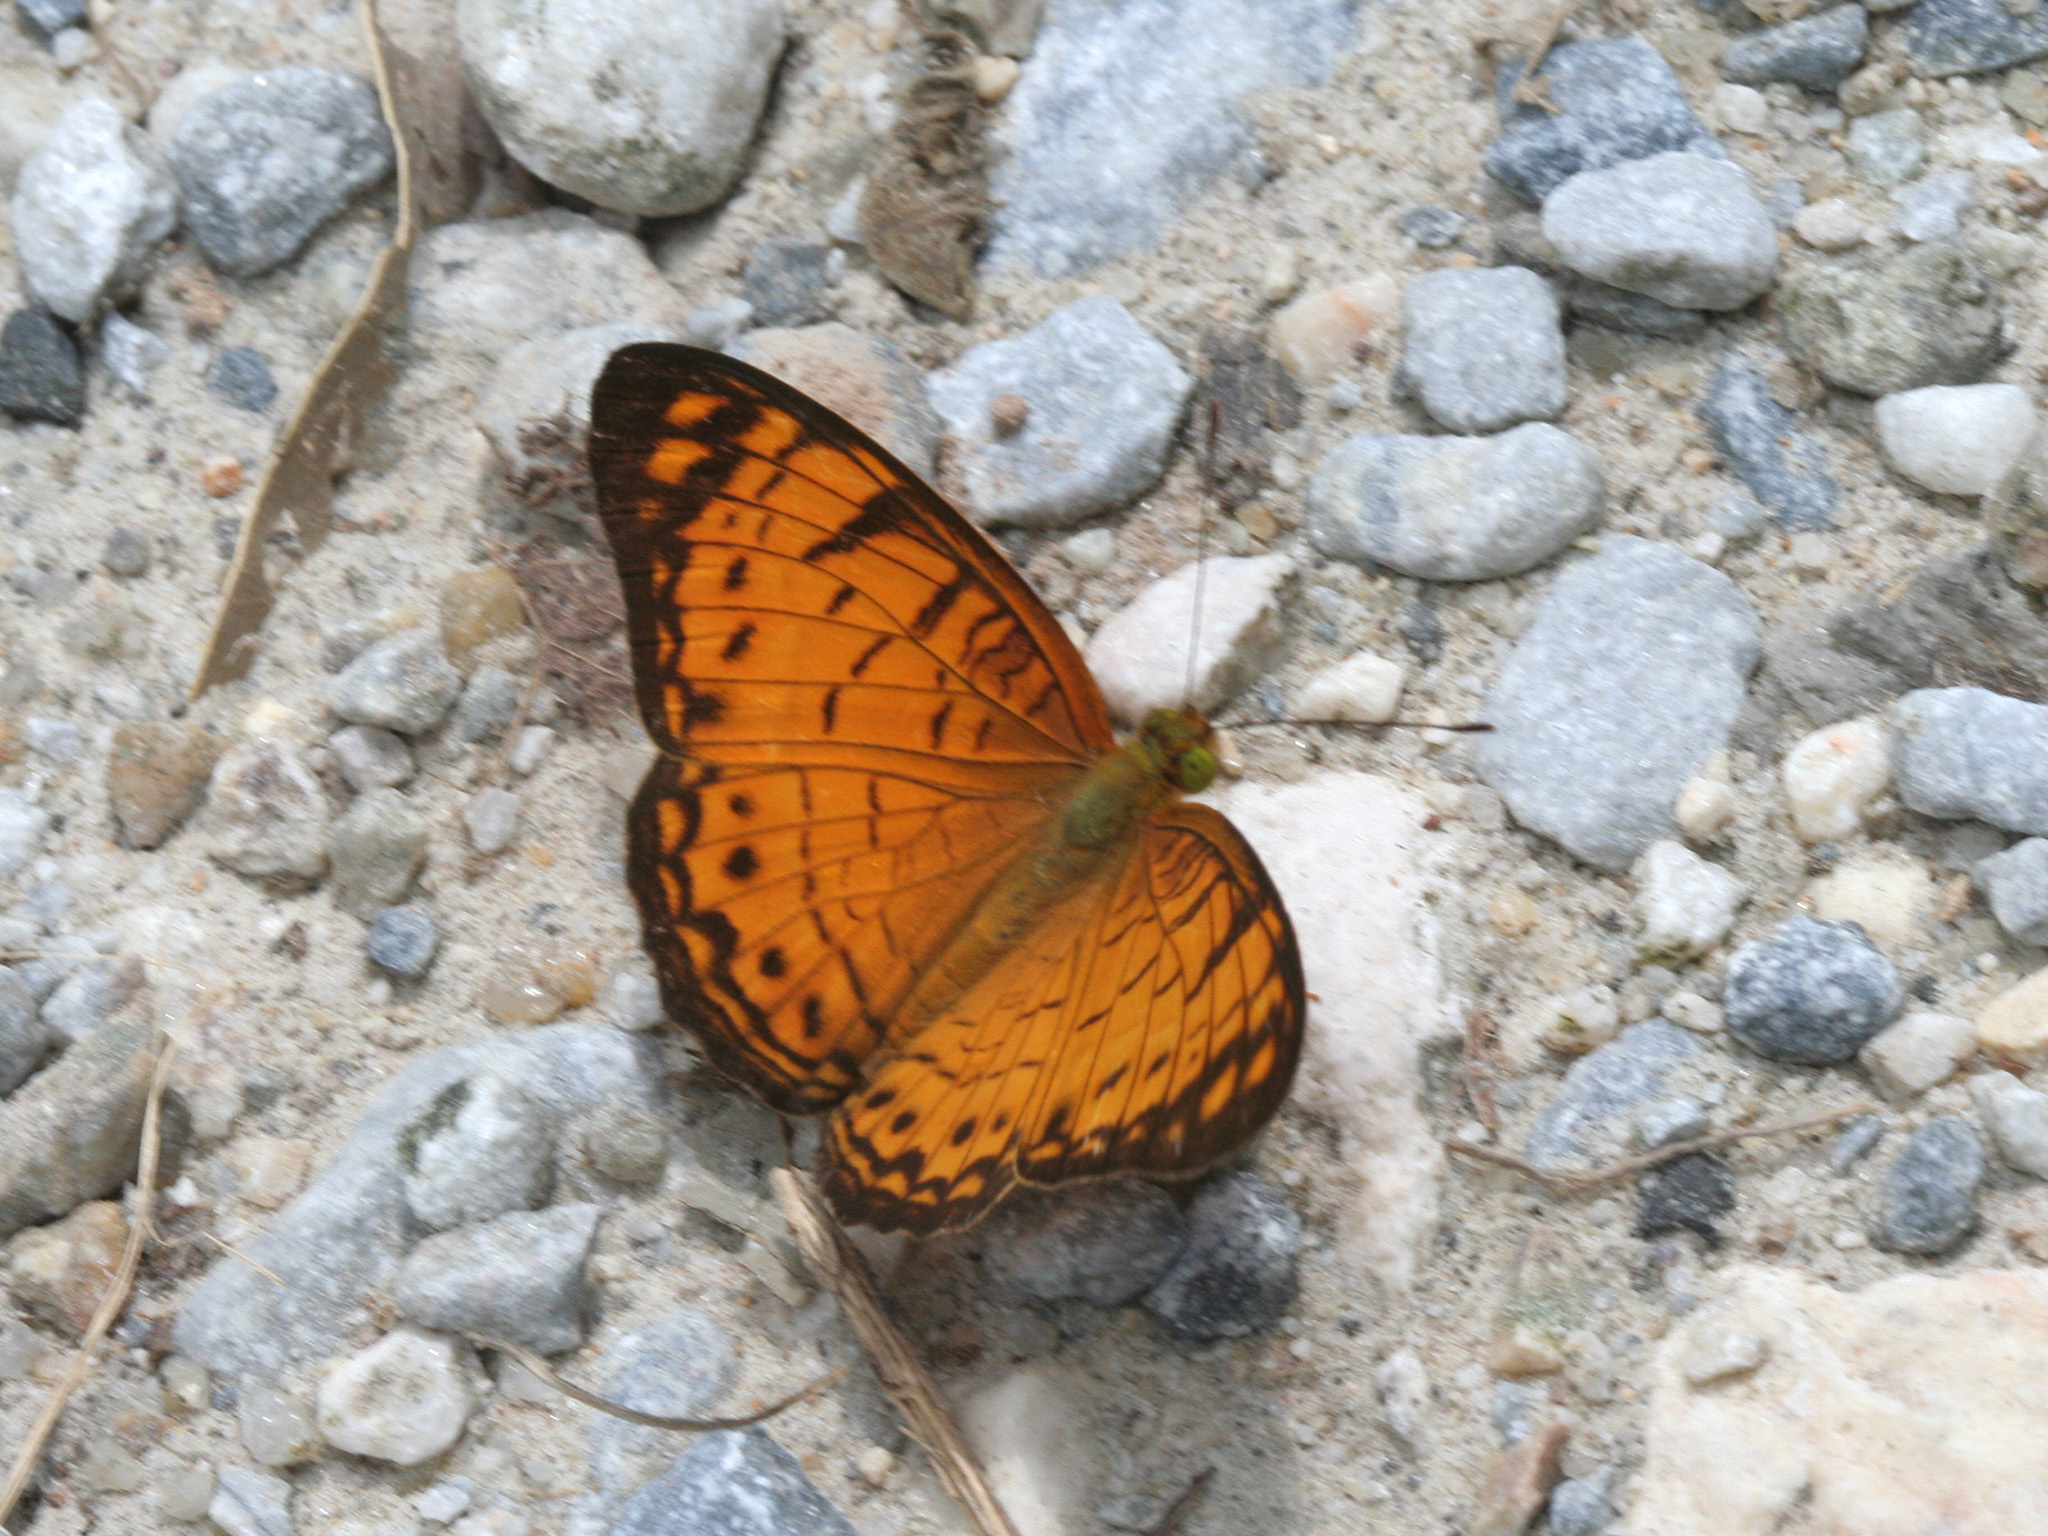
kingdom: Animalia
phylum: Arthropoda
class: Insecta
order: Lepidoptera
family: Nymphalidae
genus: Phalanta
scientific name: Phalanta alcippe
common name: Small leopard
